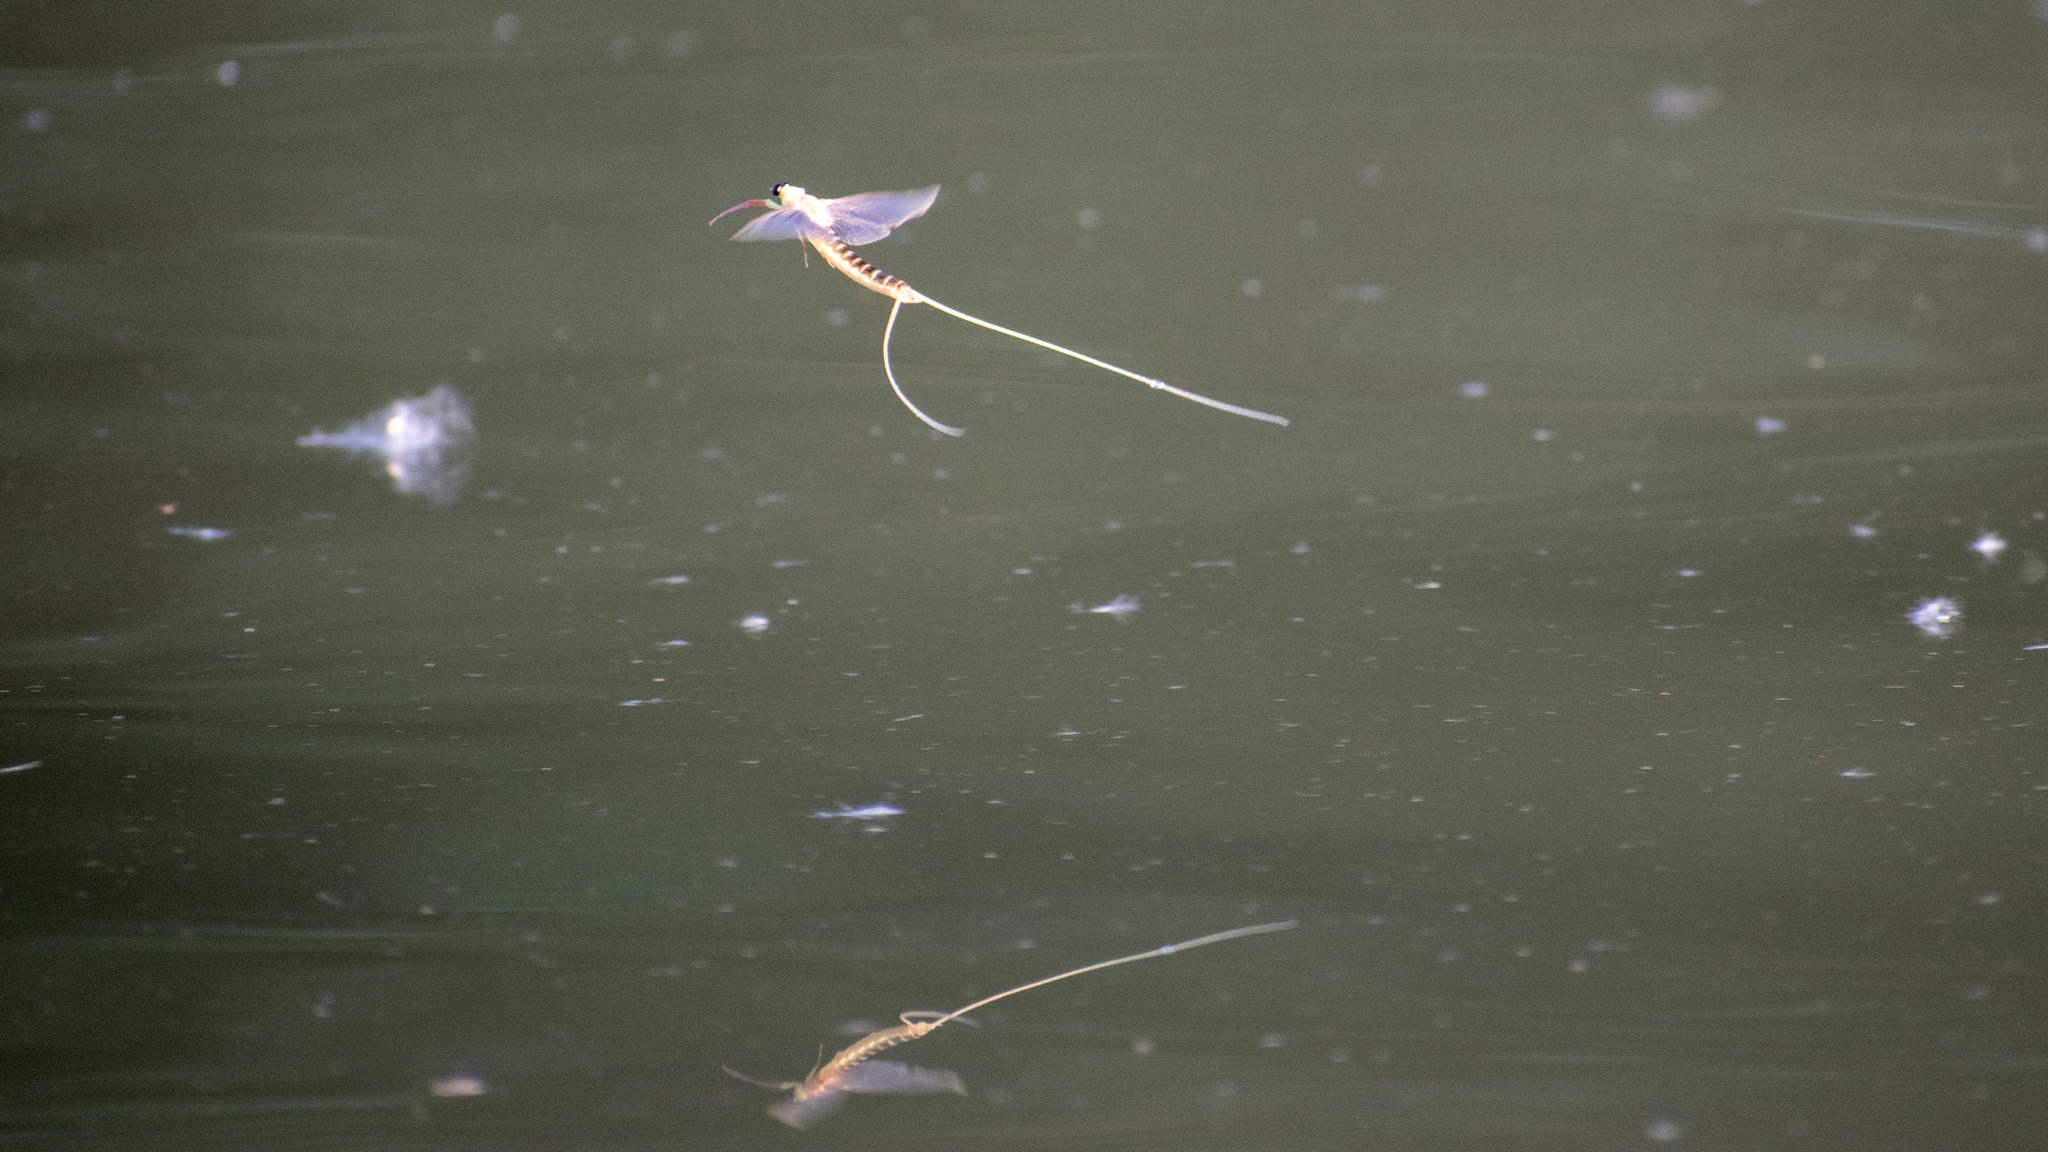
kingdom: Animalia
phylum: Arthropoda
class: Insecta
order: Ephemeroptera
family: Palingeniidae
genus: Palingenia
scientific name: Palingenia longicauda
